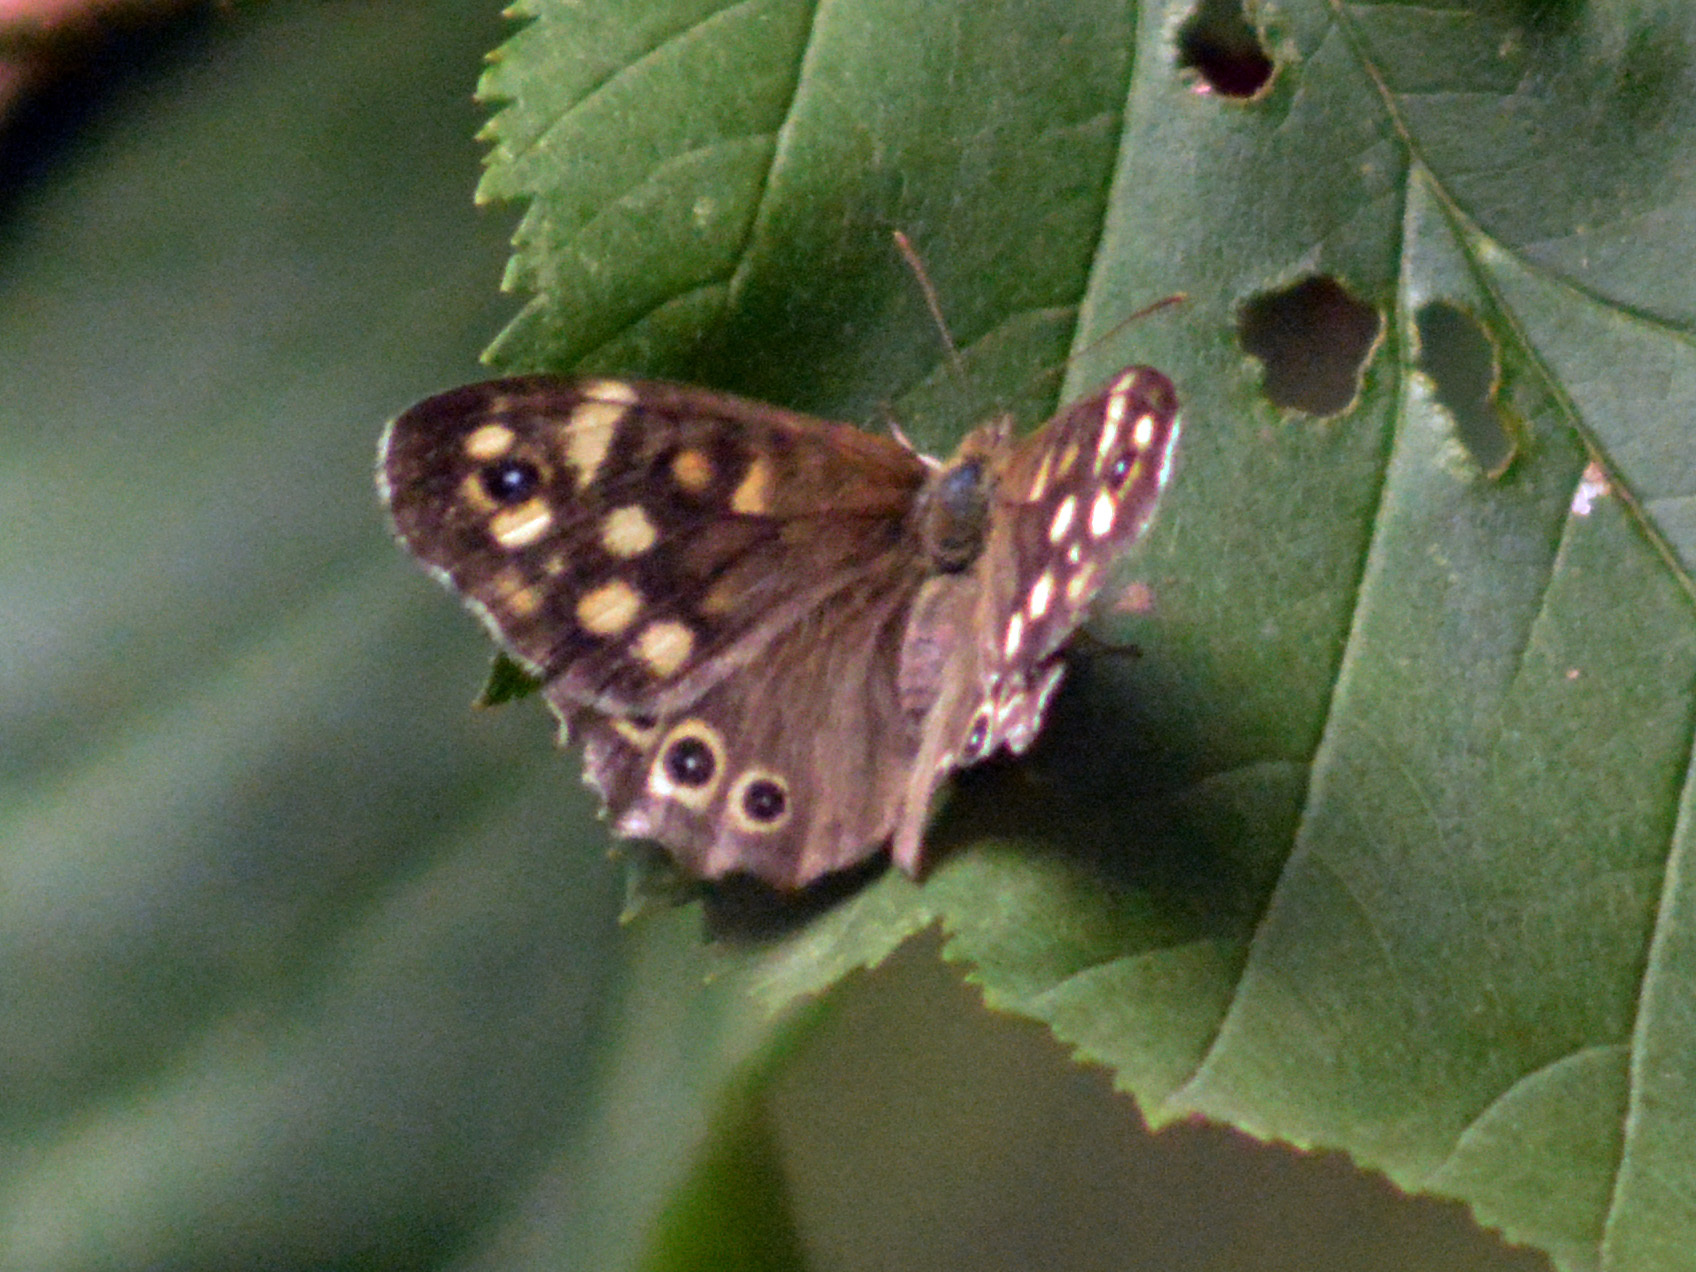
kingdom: Animalia
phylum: Arthropoda
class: Insecta
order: Lepidoptera
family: Nymphalidae
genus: Pararge
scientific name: Pararge aegeria
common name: Speckled wood
